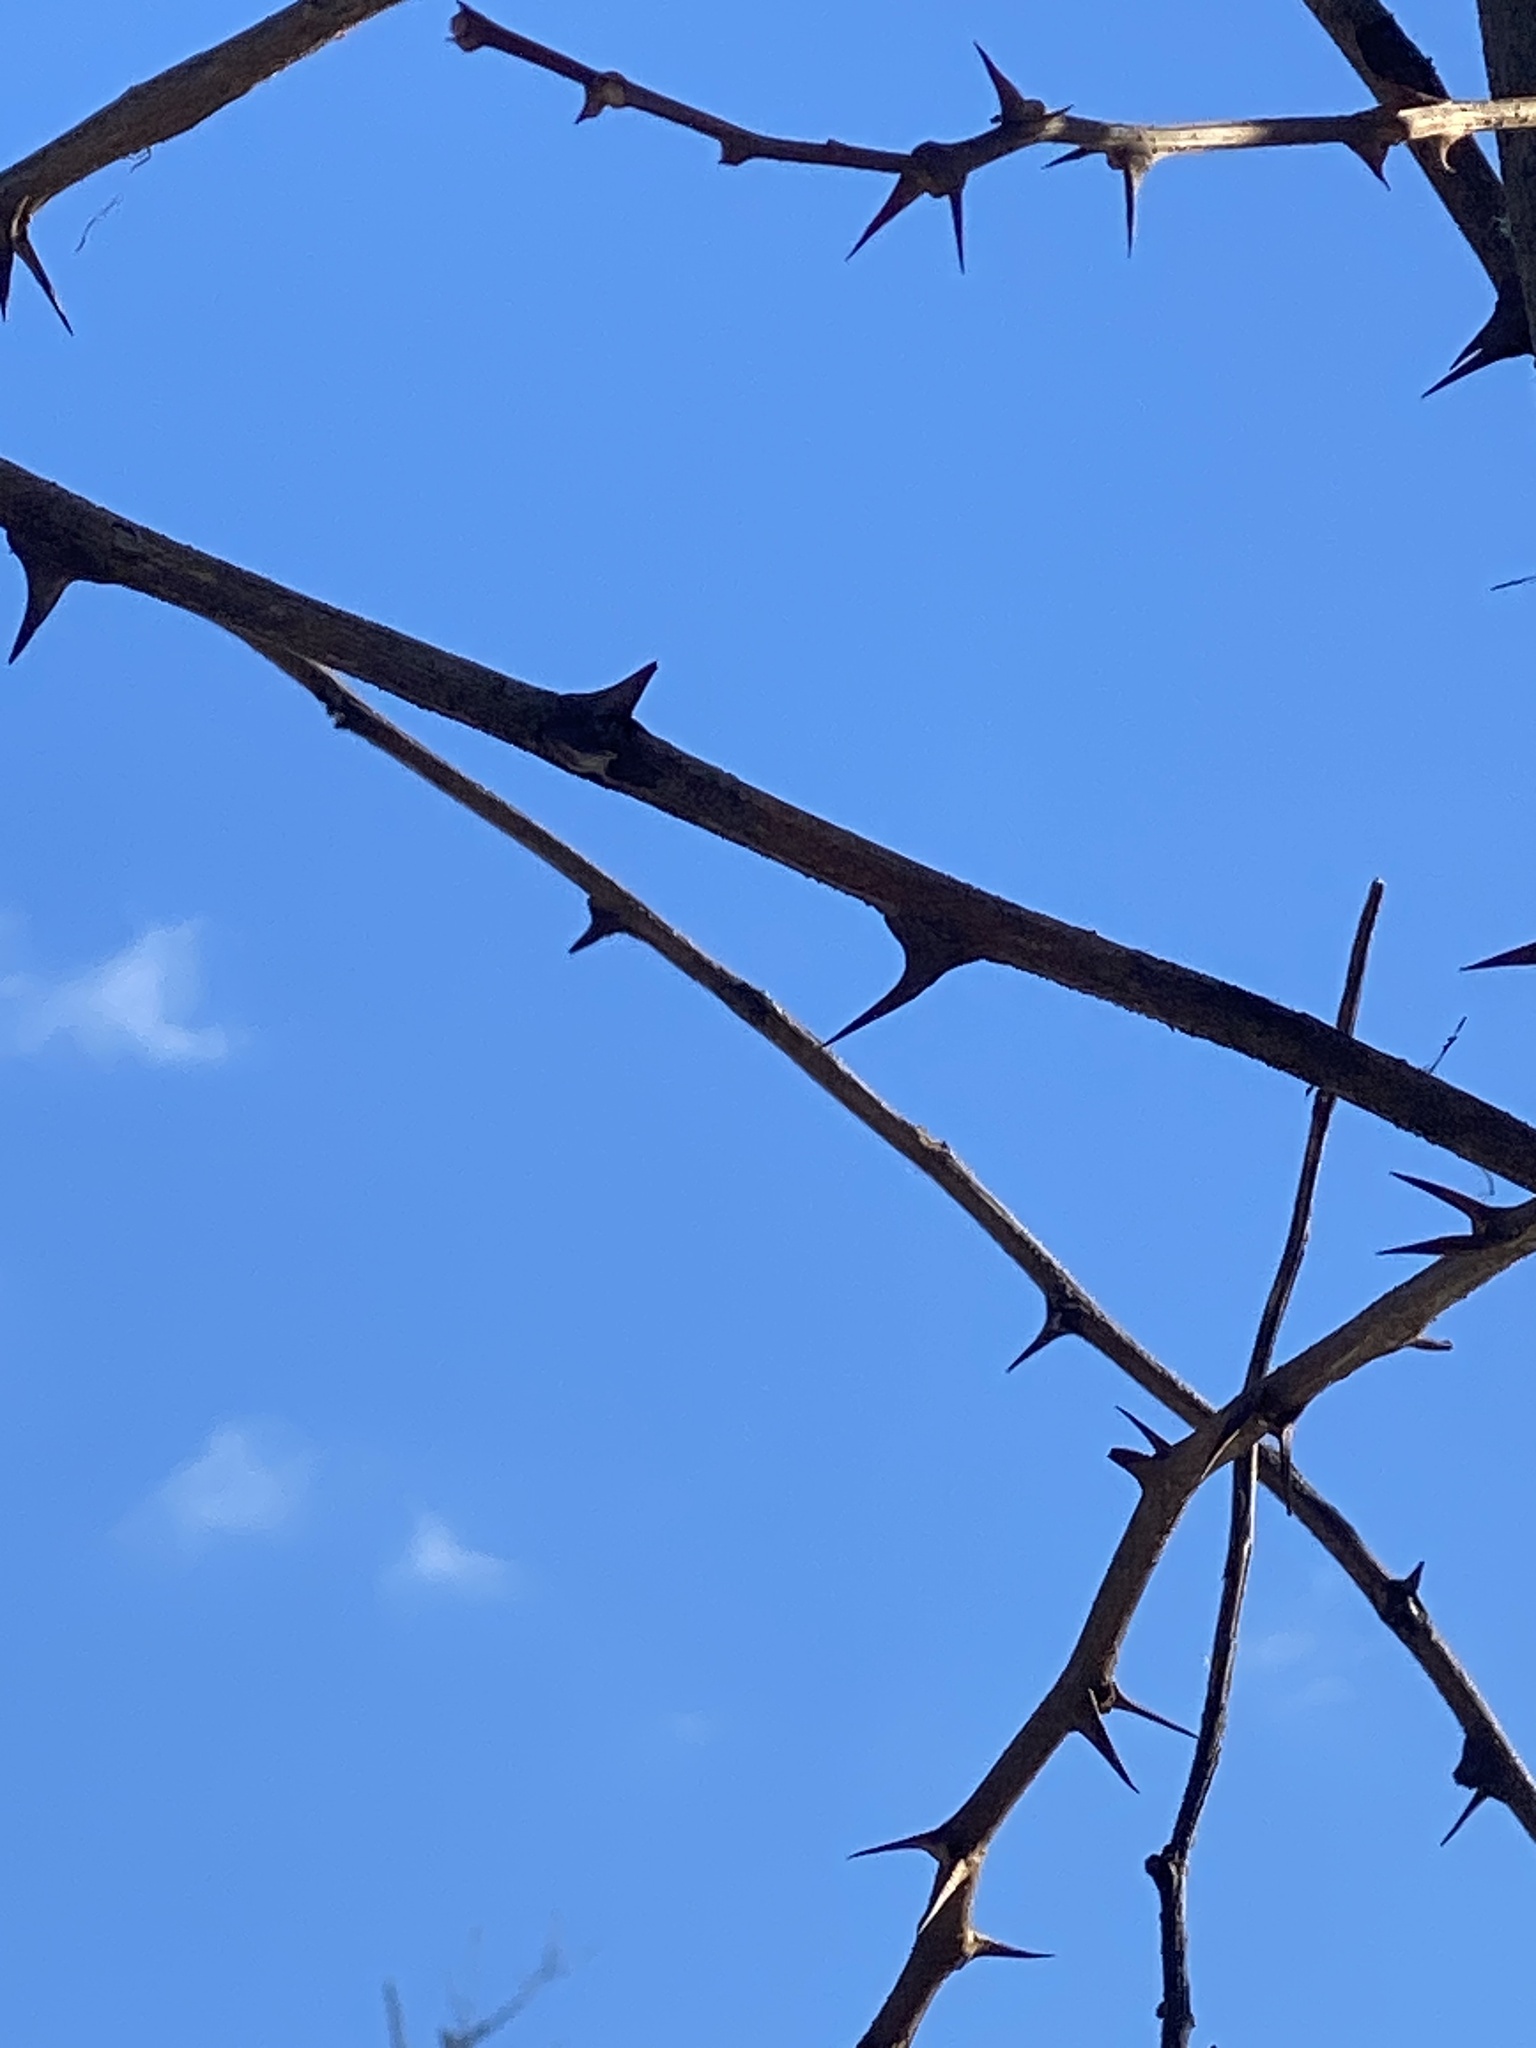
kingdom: Plantae
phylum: Tracheophyta
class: Magnoliopsida
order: Fabales
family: Fabaceae
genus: Robinia
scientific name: Robinia pseudoacacia
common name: Black locust
